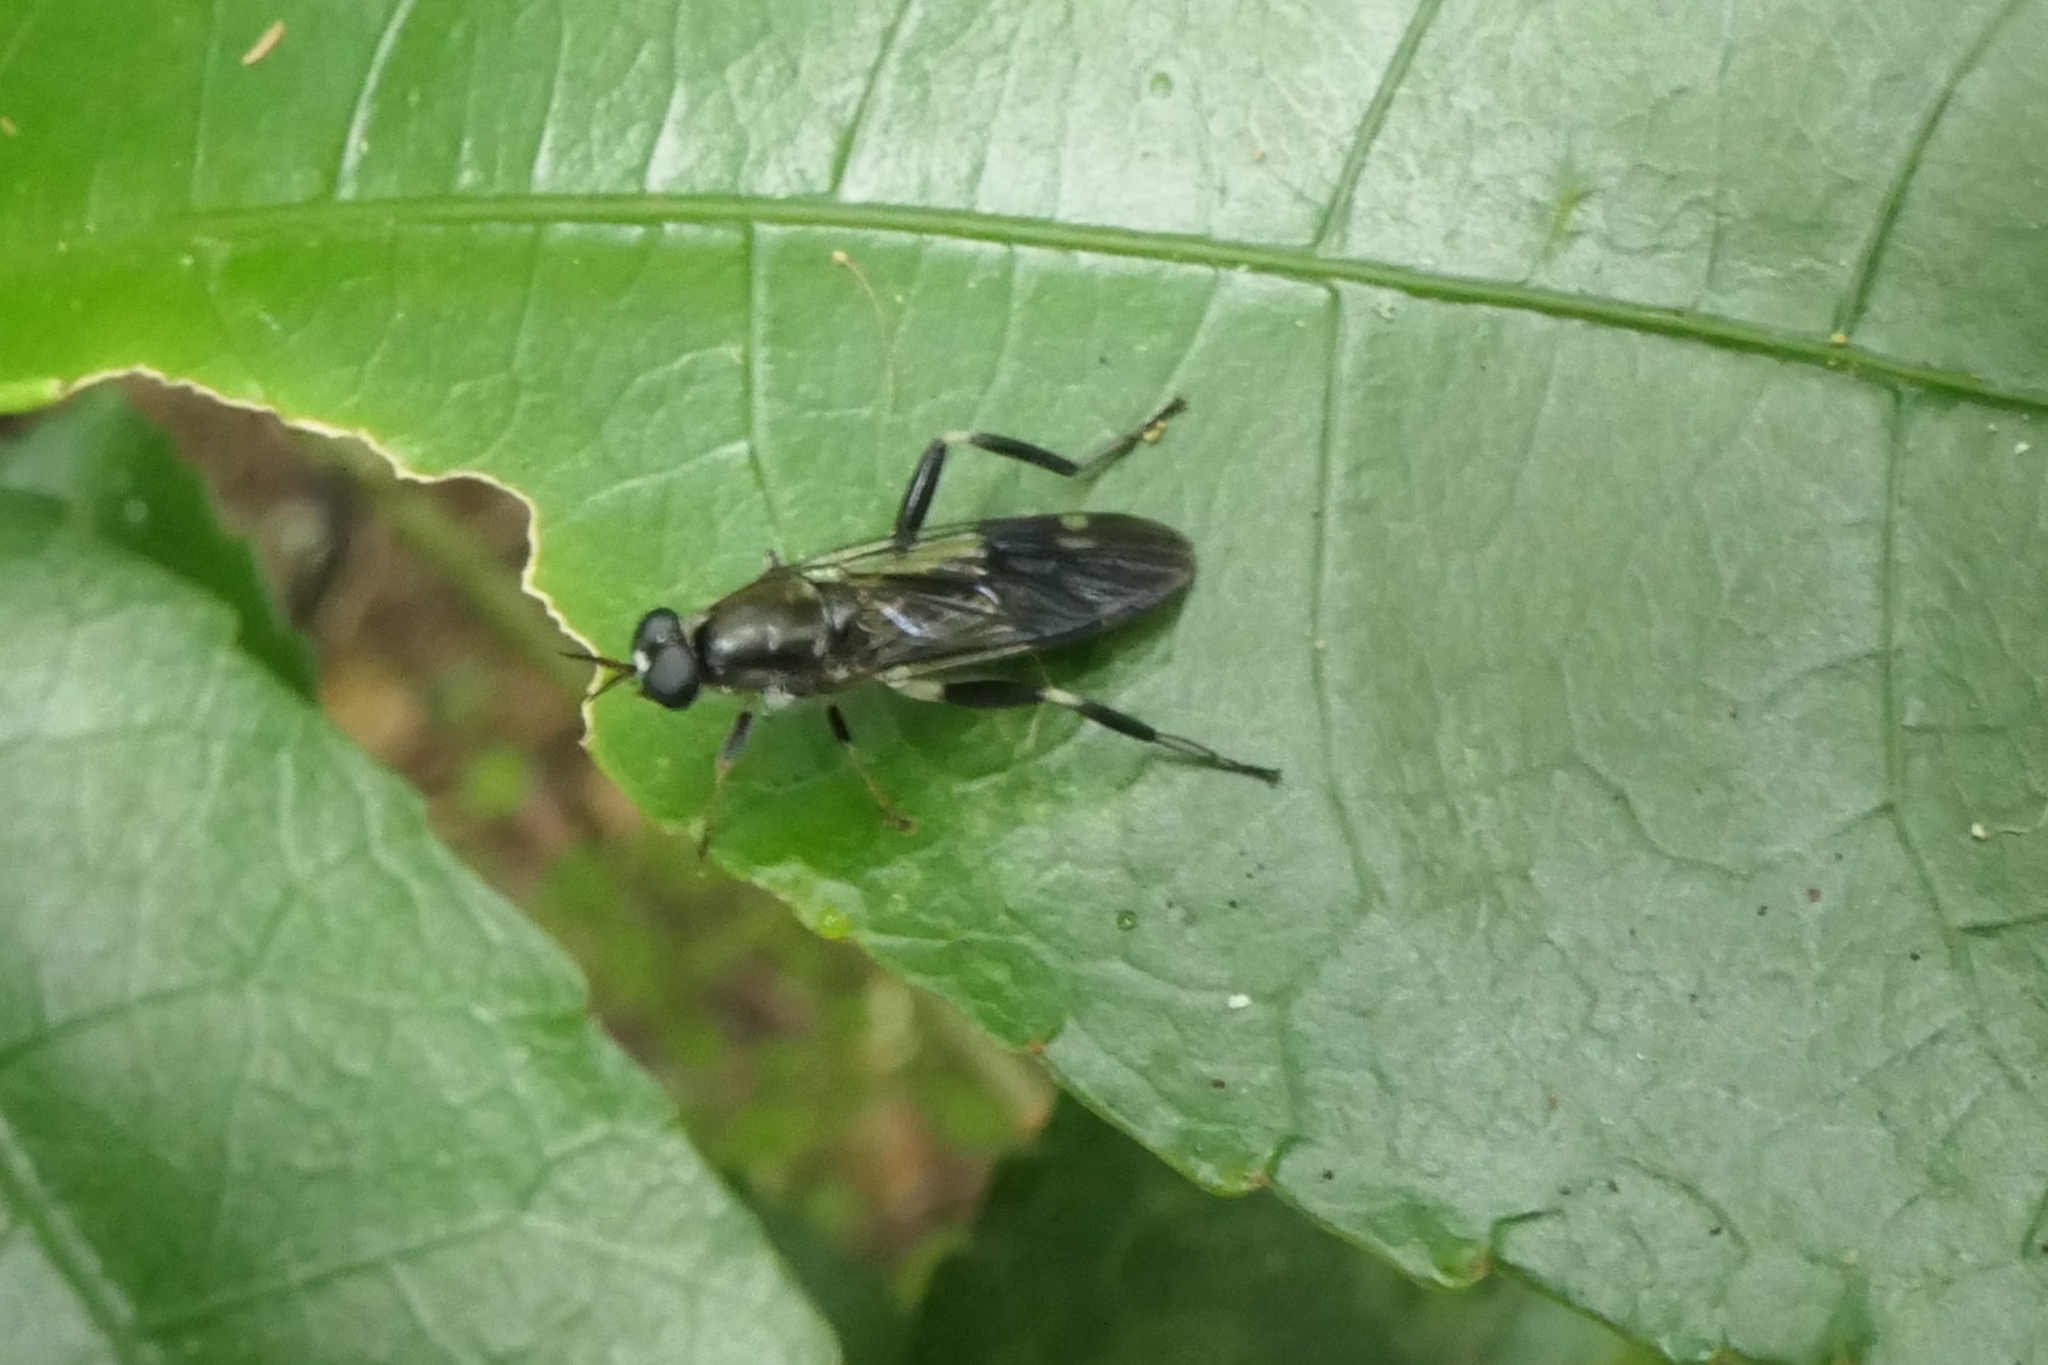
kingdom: Animalia
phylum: Arthropoda
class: Insecta
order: Diptera
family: Stratiomyidae
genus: Exaireta
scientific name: Exaireta spinigera
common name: Blue soldier fly
